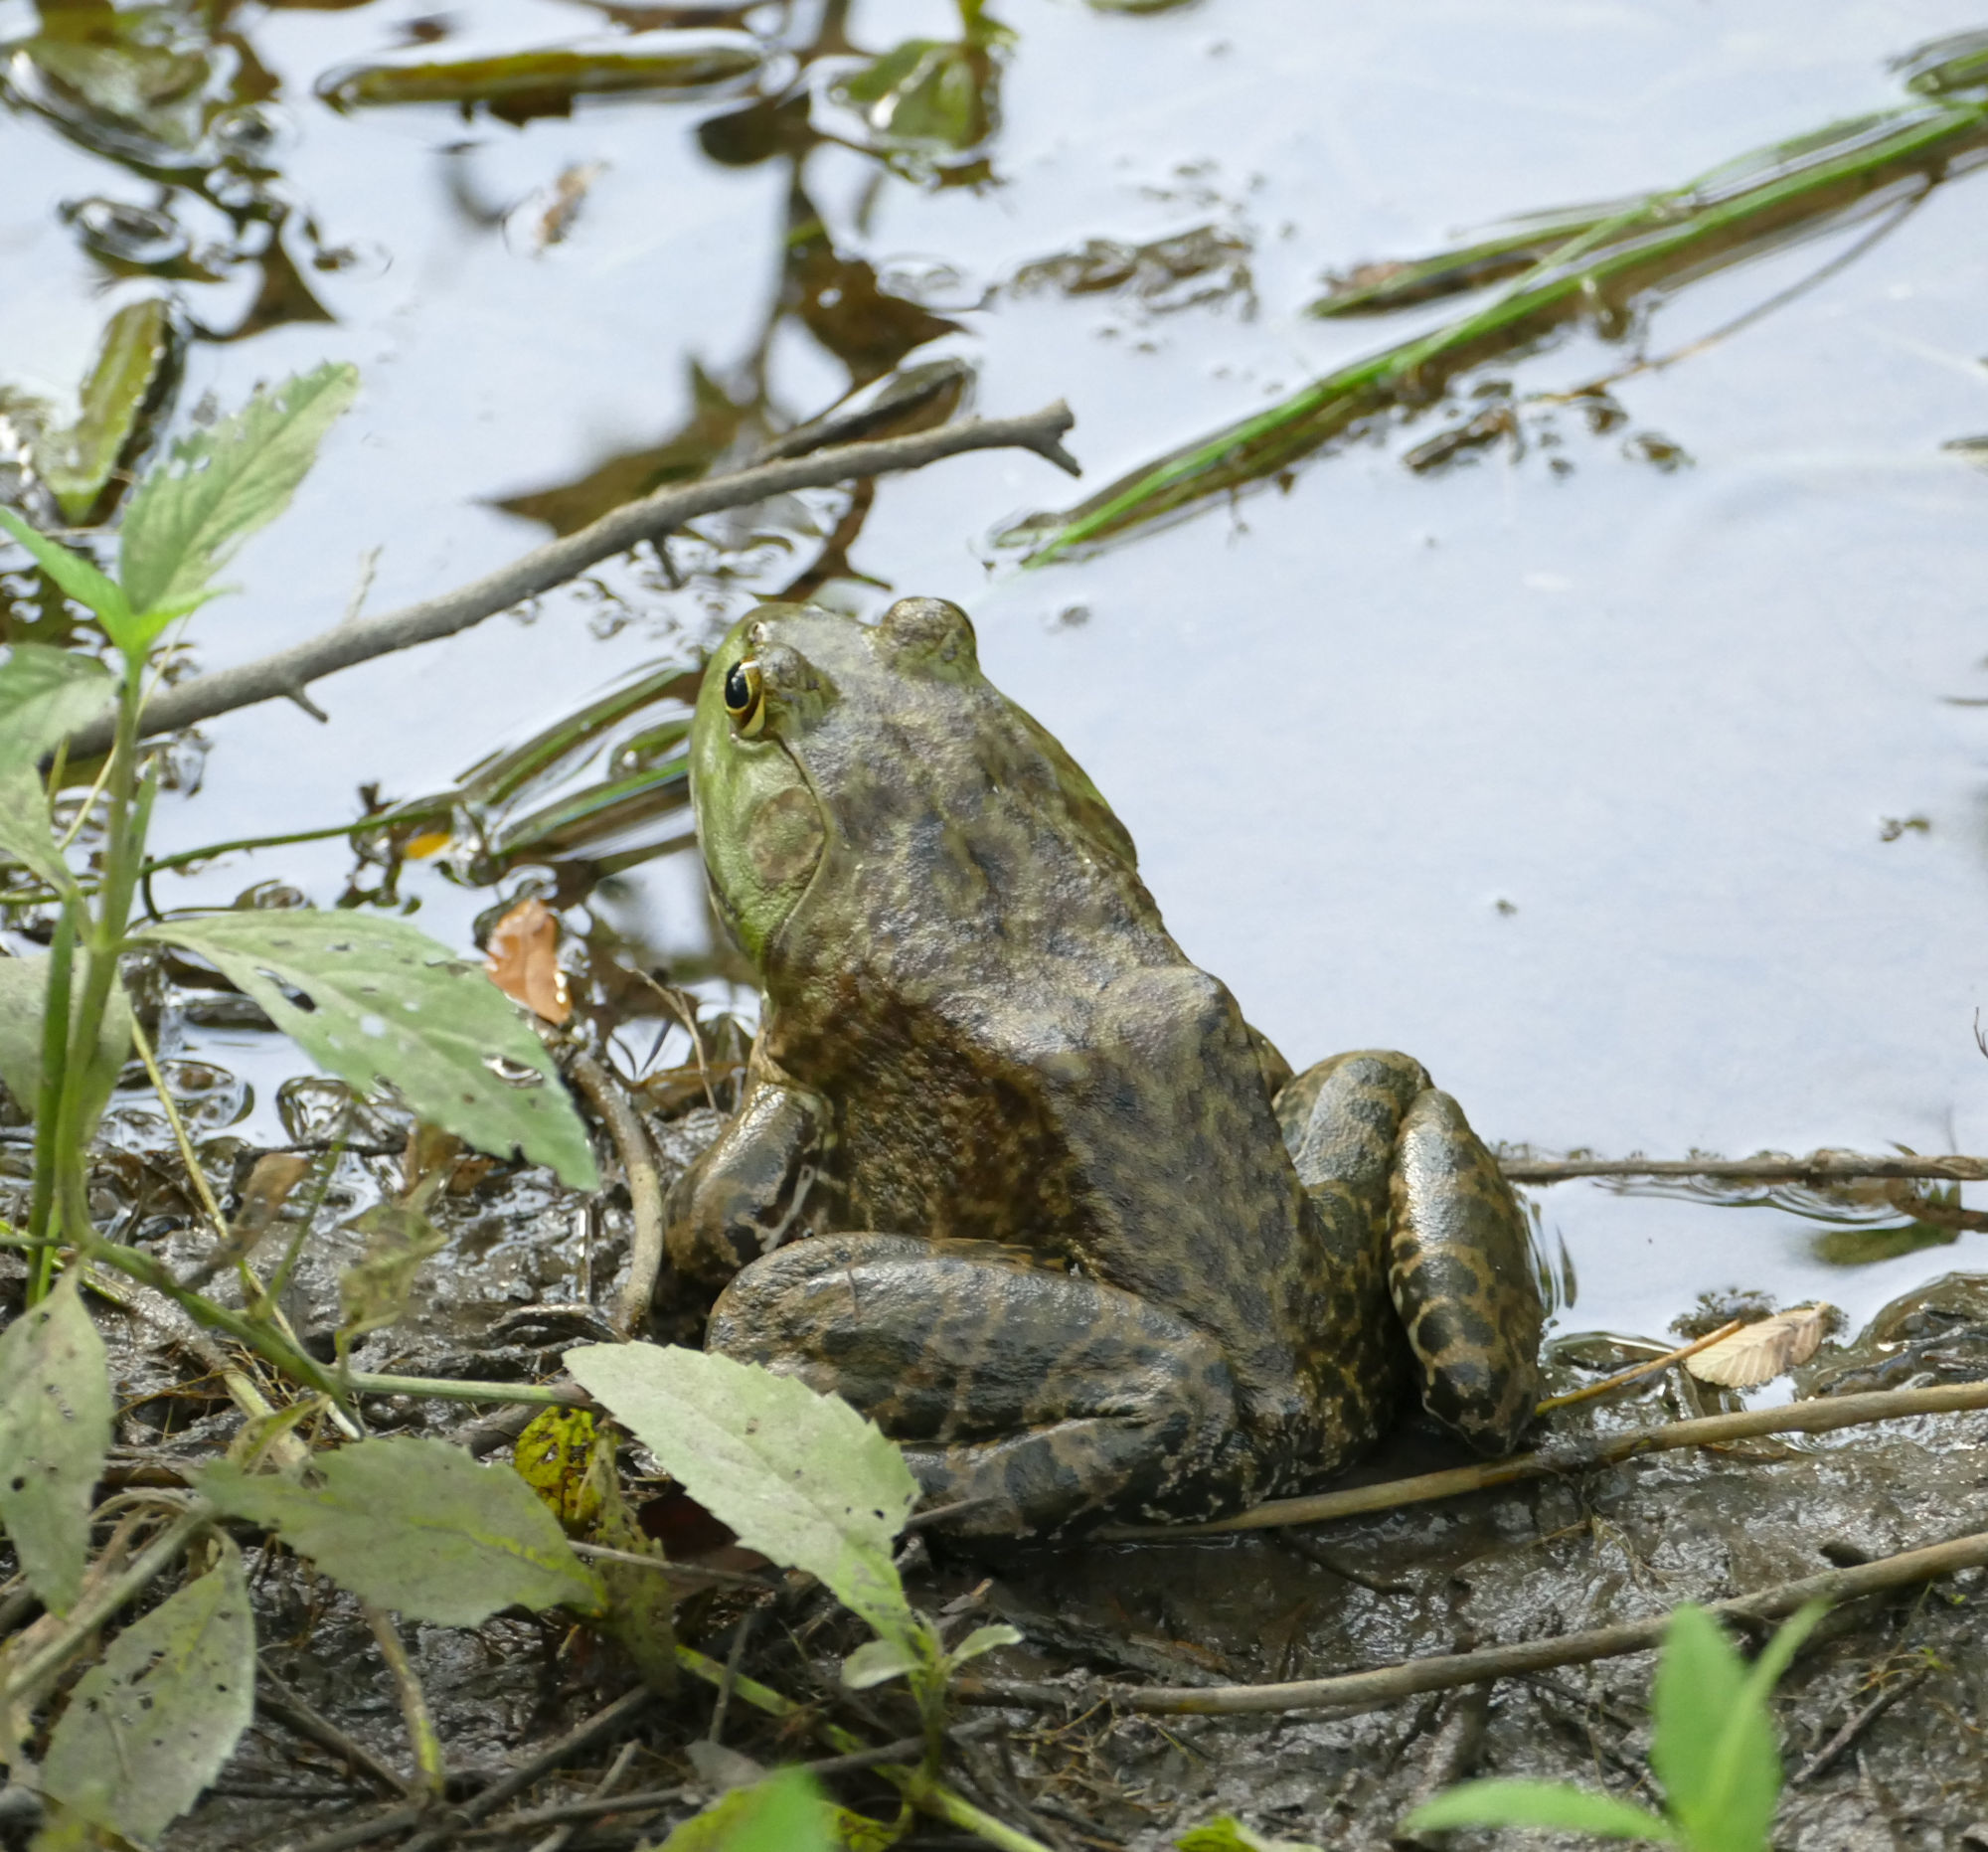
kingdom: Animalia
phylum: Chordata
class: Amphibia
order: Anura
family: Ranidae
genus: Lithobates
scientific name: Lithobates catesbeianus
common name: American bullfrog
